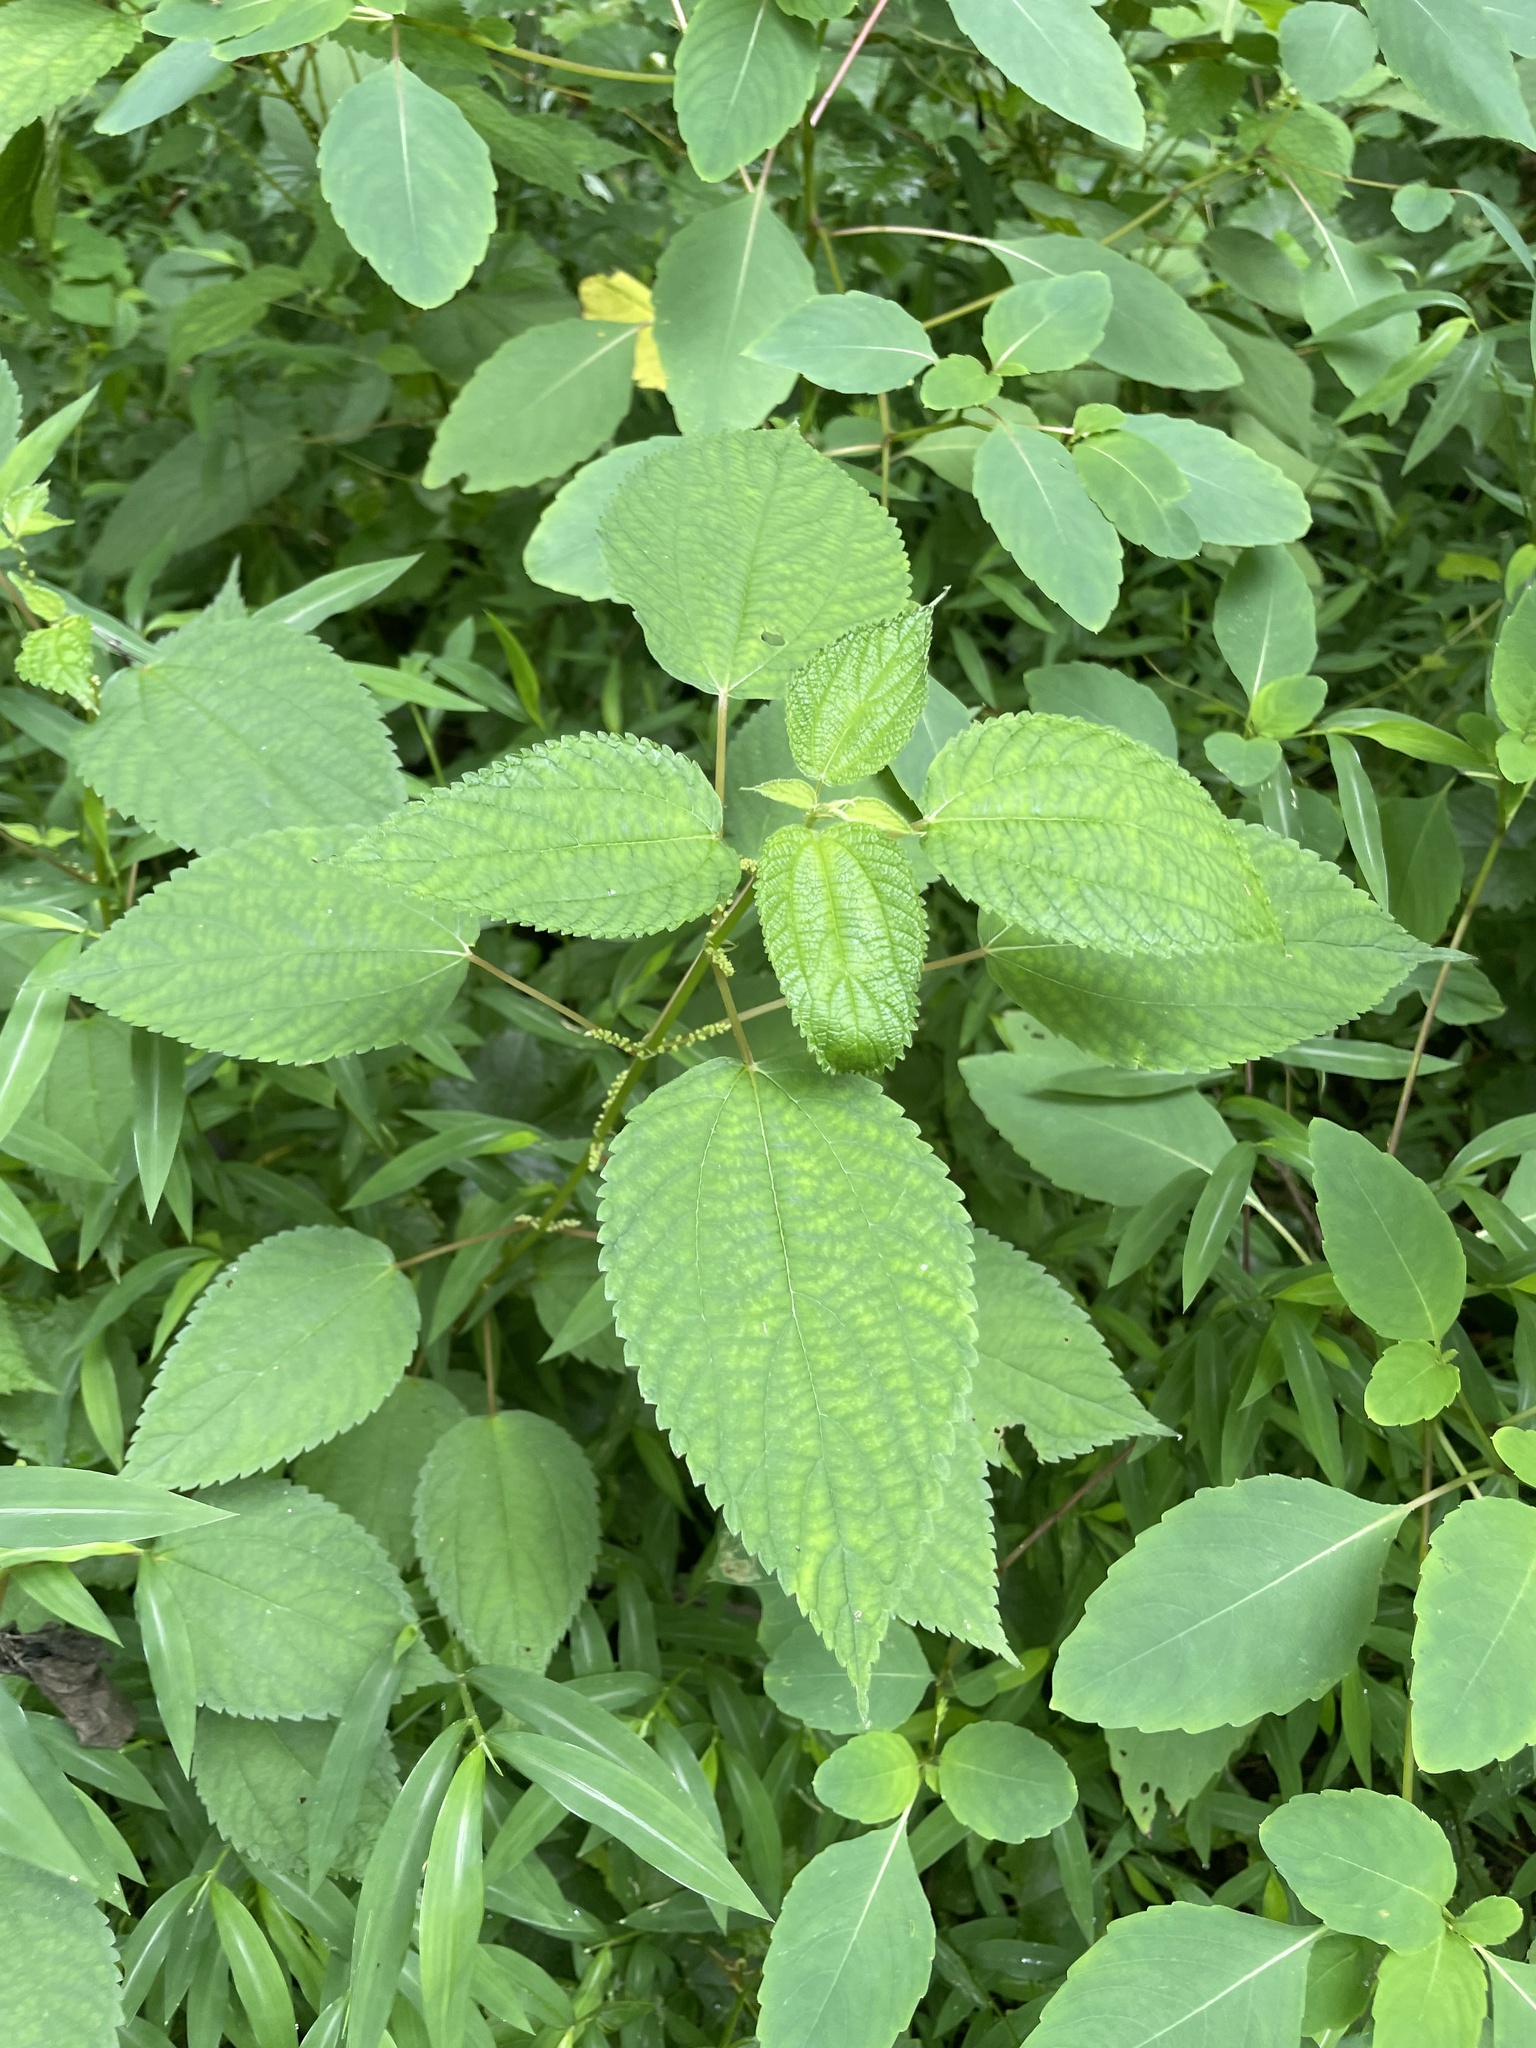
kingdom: Plantae
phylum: Tracheophyta
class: Magnoliopsida
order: Rosales
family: Urticaceae
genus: Boehmeria
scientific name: Boehmeria cylindrica
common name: Bog-hemp
